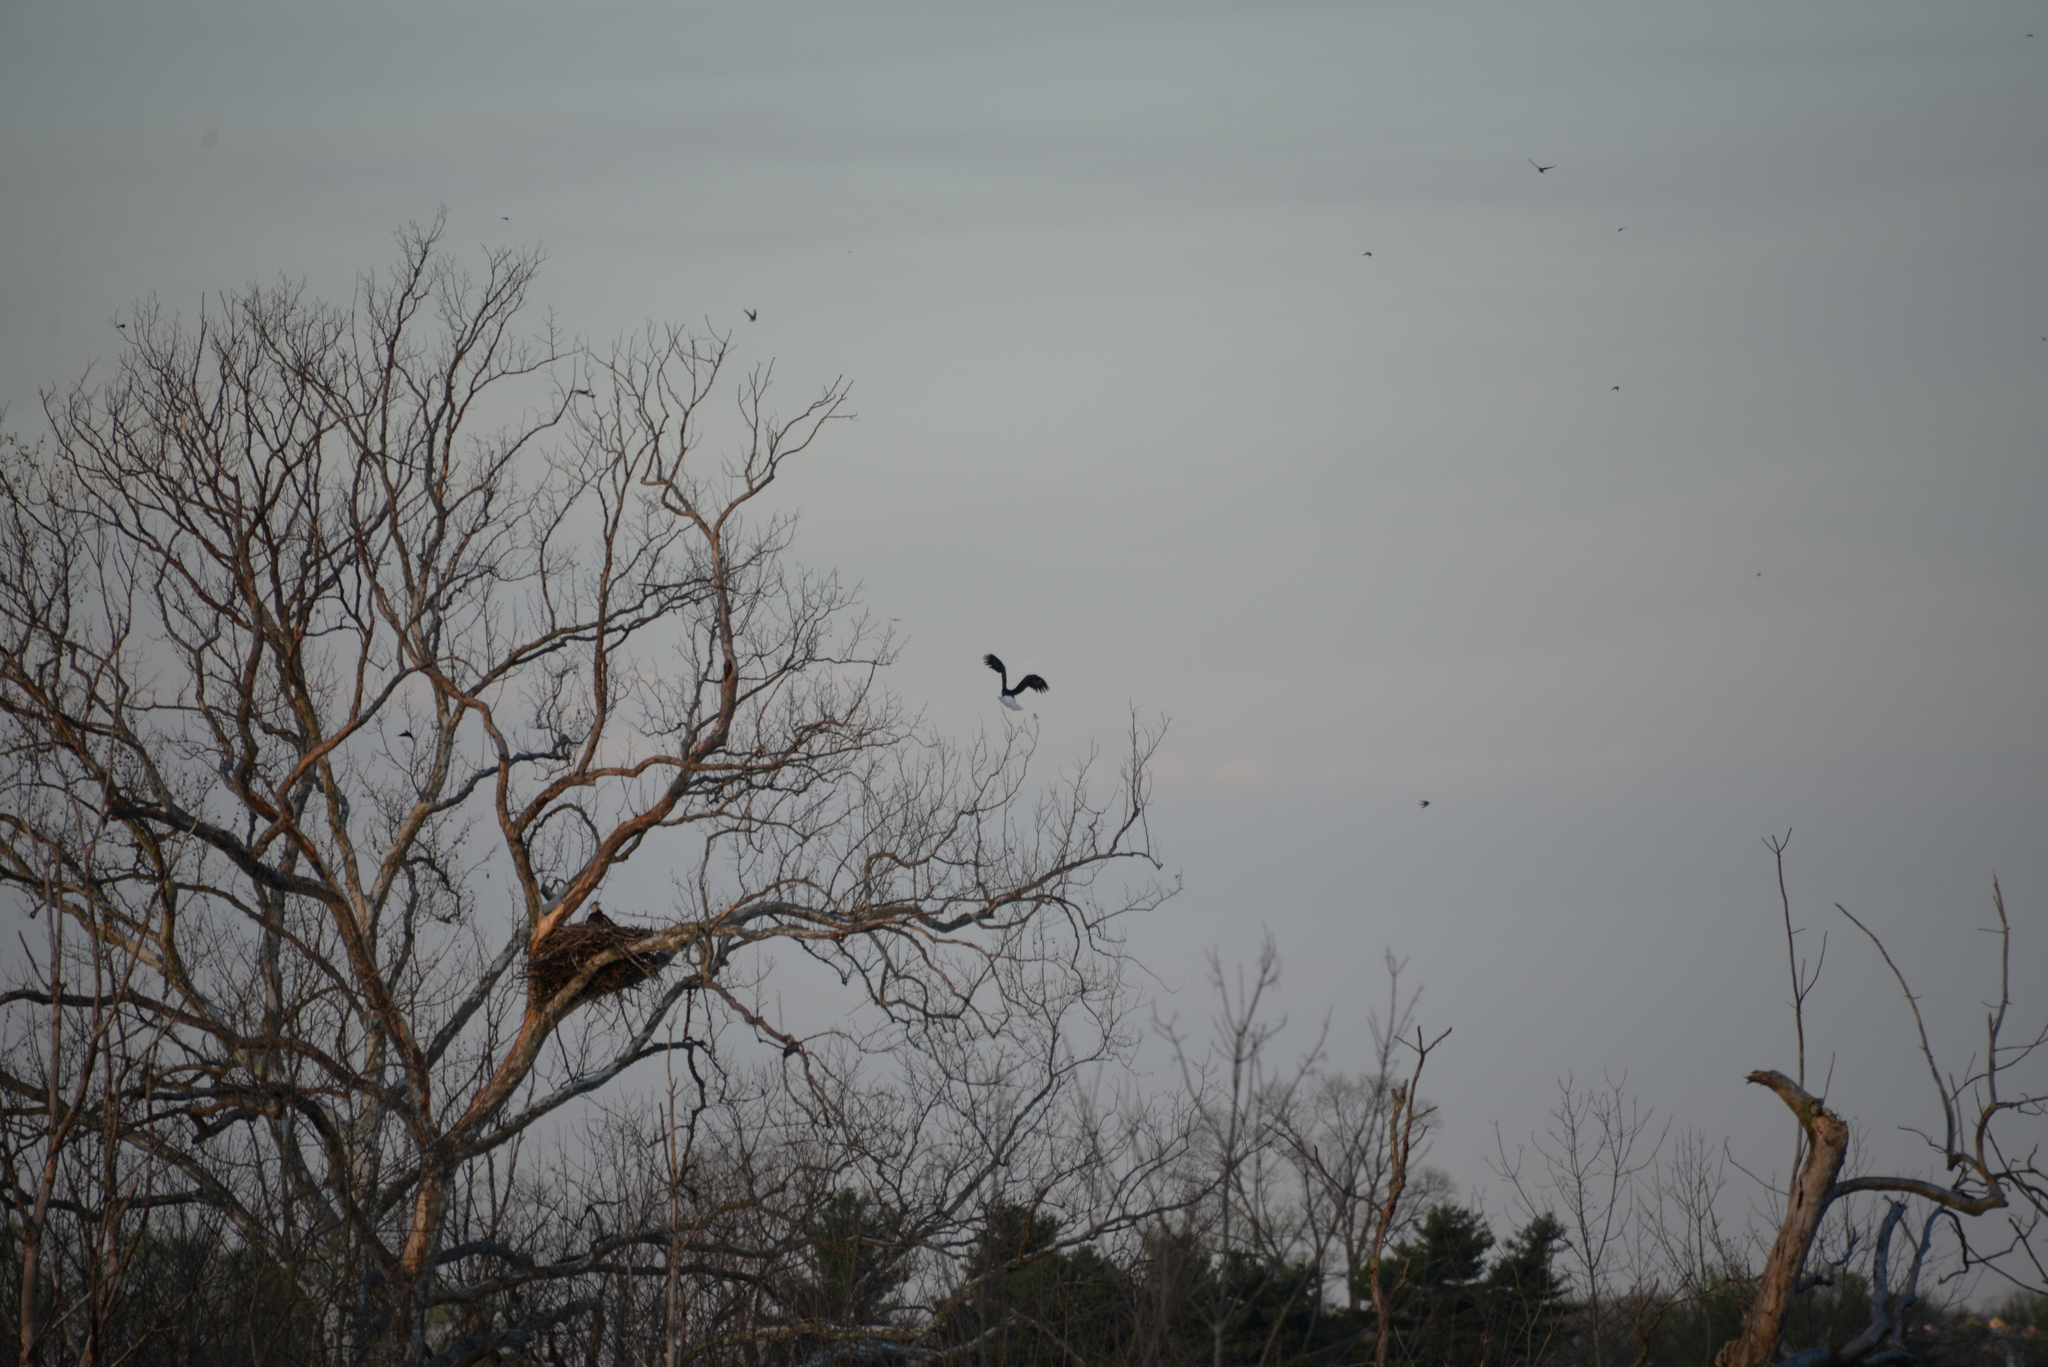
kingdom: Animalia
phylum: Chordata
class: Aves
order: Accipitriformes
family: Accipitridae
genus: Haliaeetus
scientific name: Haliaeetus leucocephalus
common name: Bald eagle
